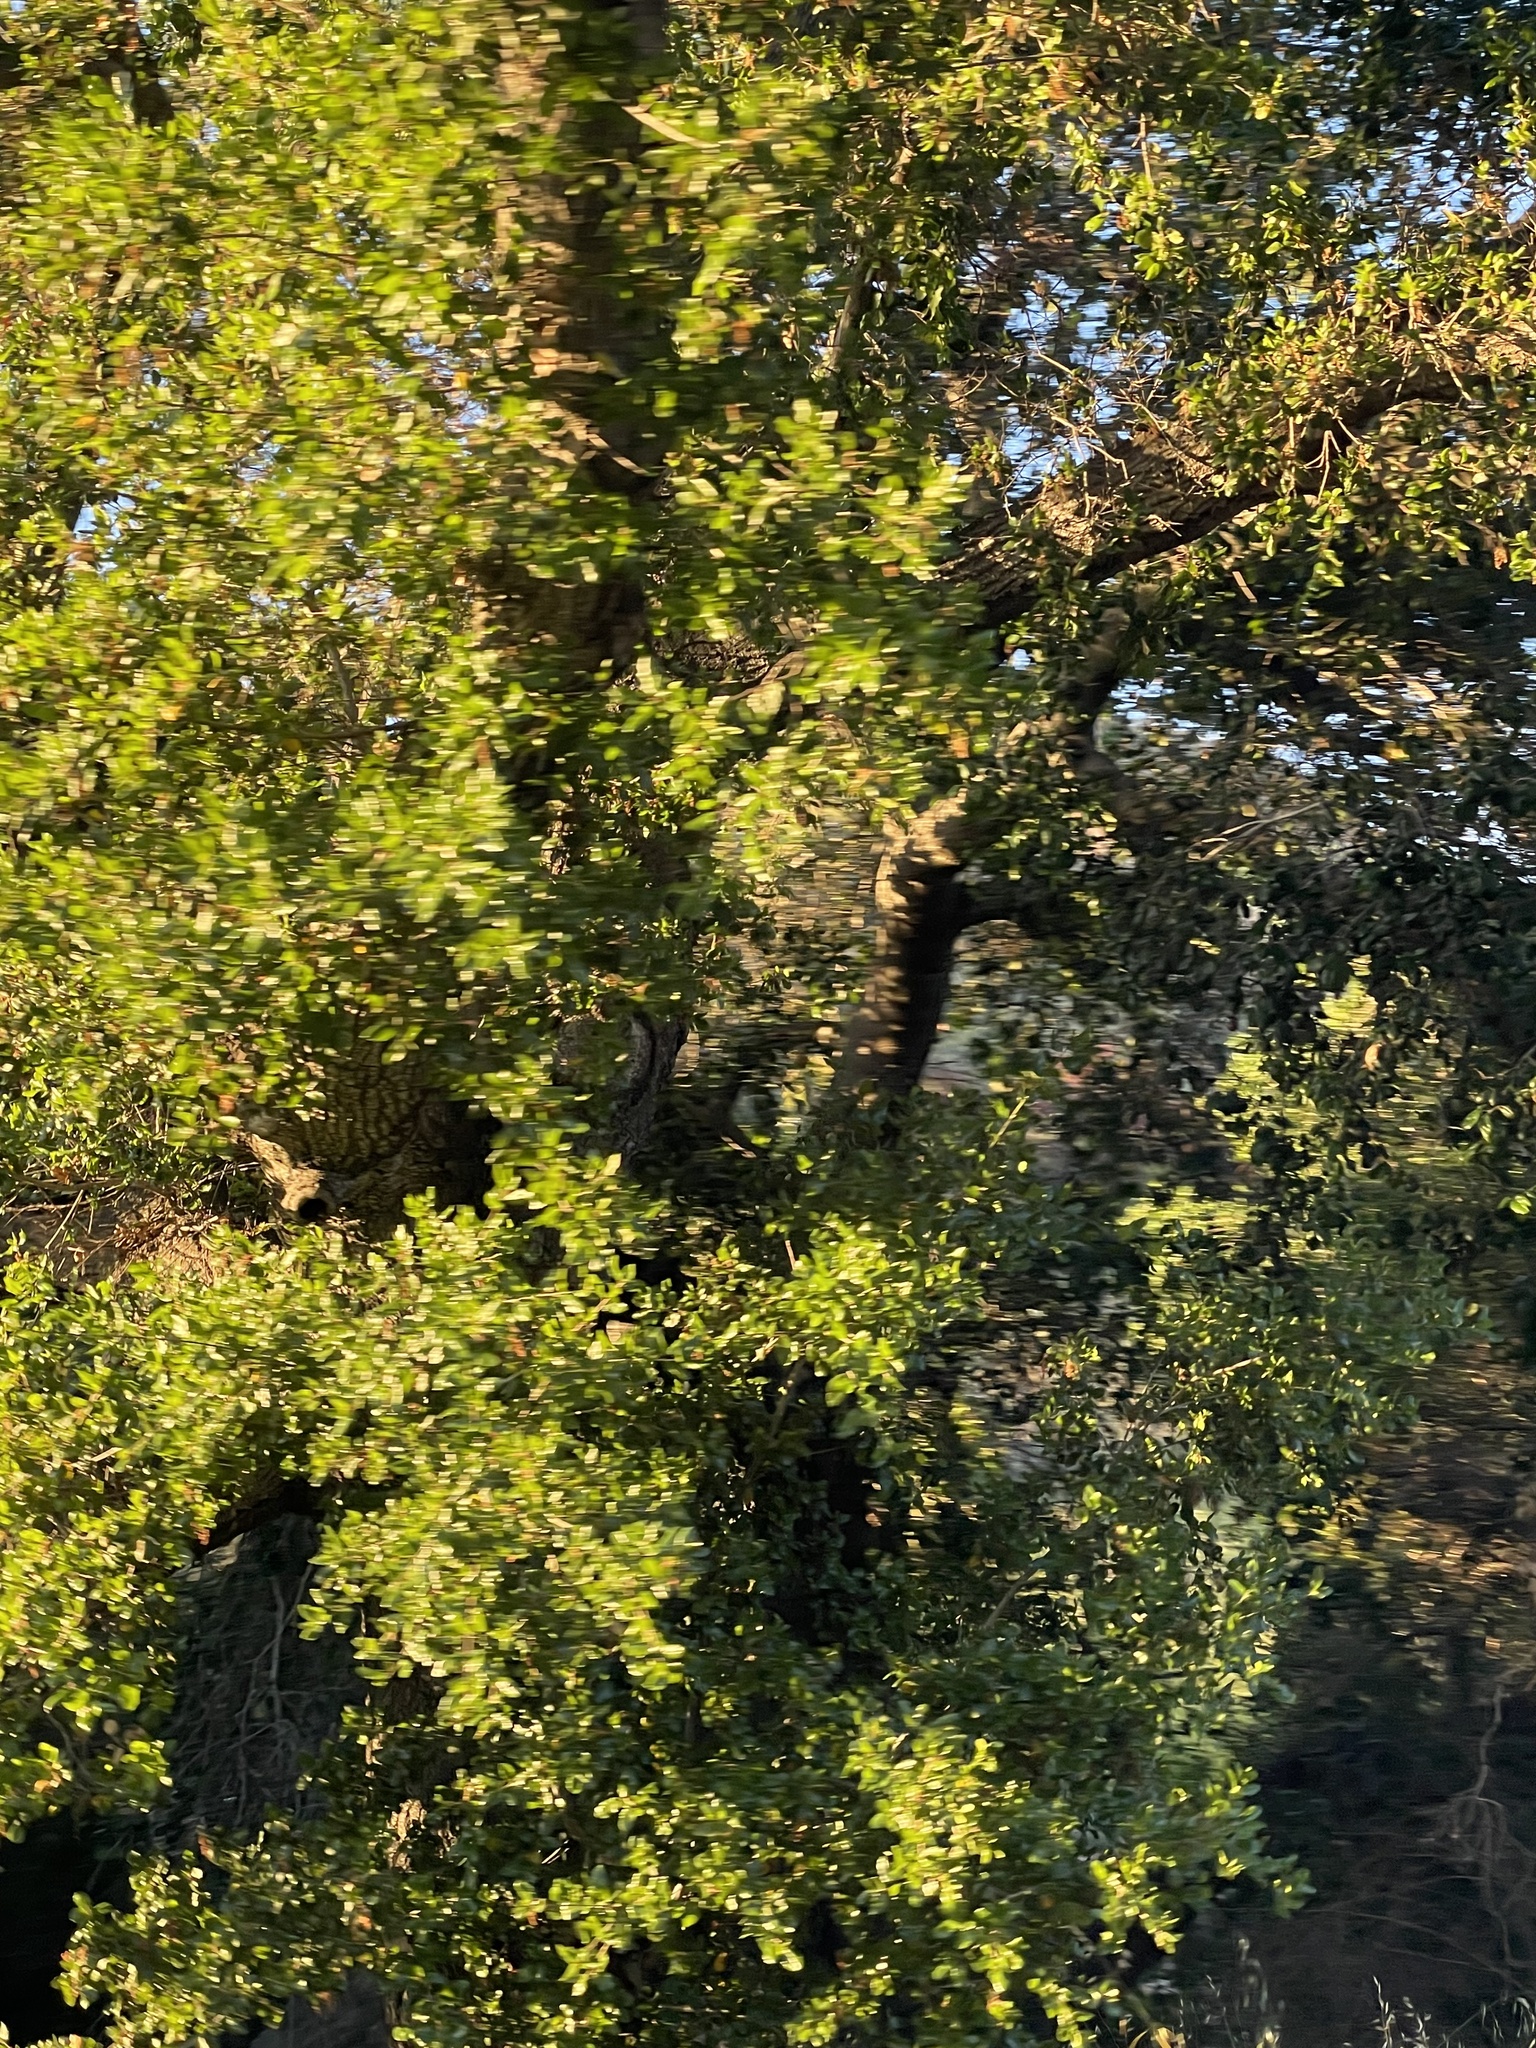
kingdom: Plantae
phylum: Tracheophyta
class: Magnoliopsida
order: Fagales
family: Fagaceae
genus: Quercus
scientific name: Quercus agrifolia
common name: California live oak
